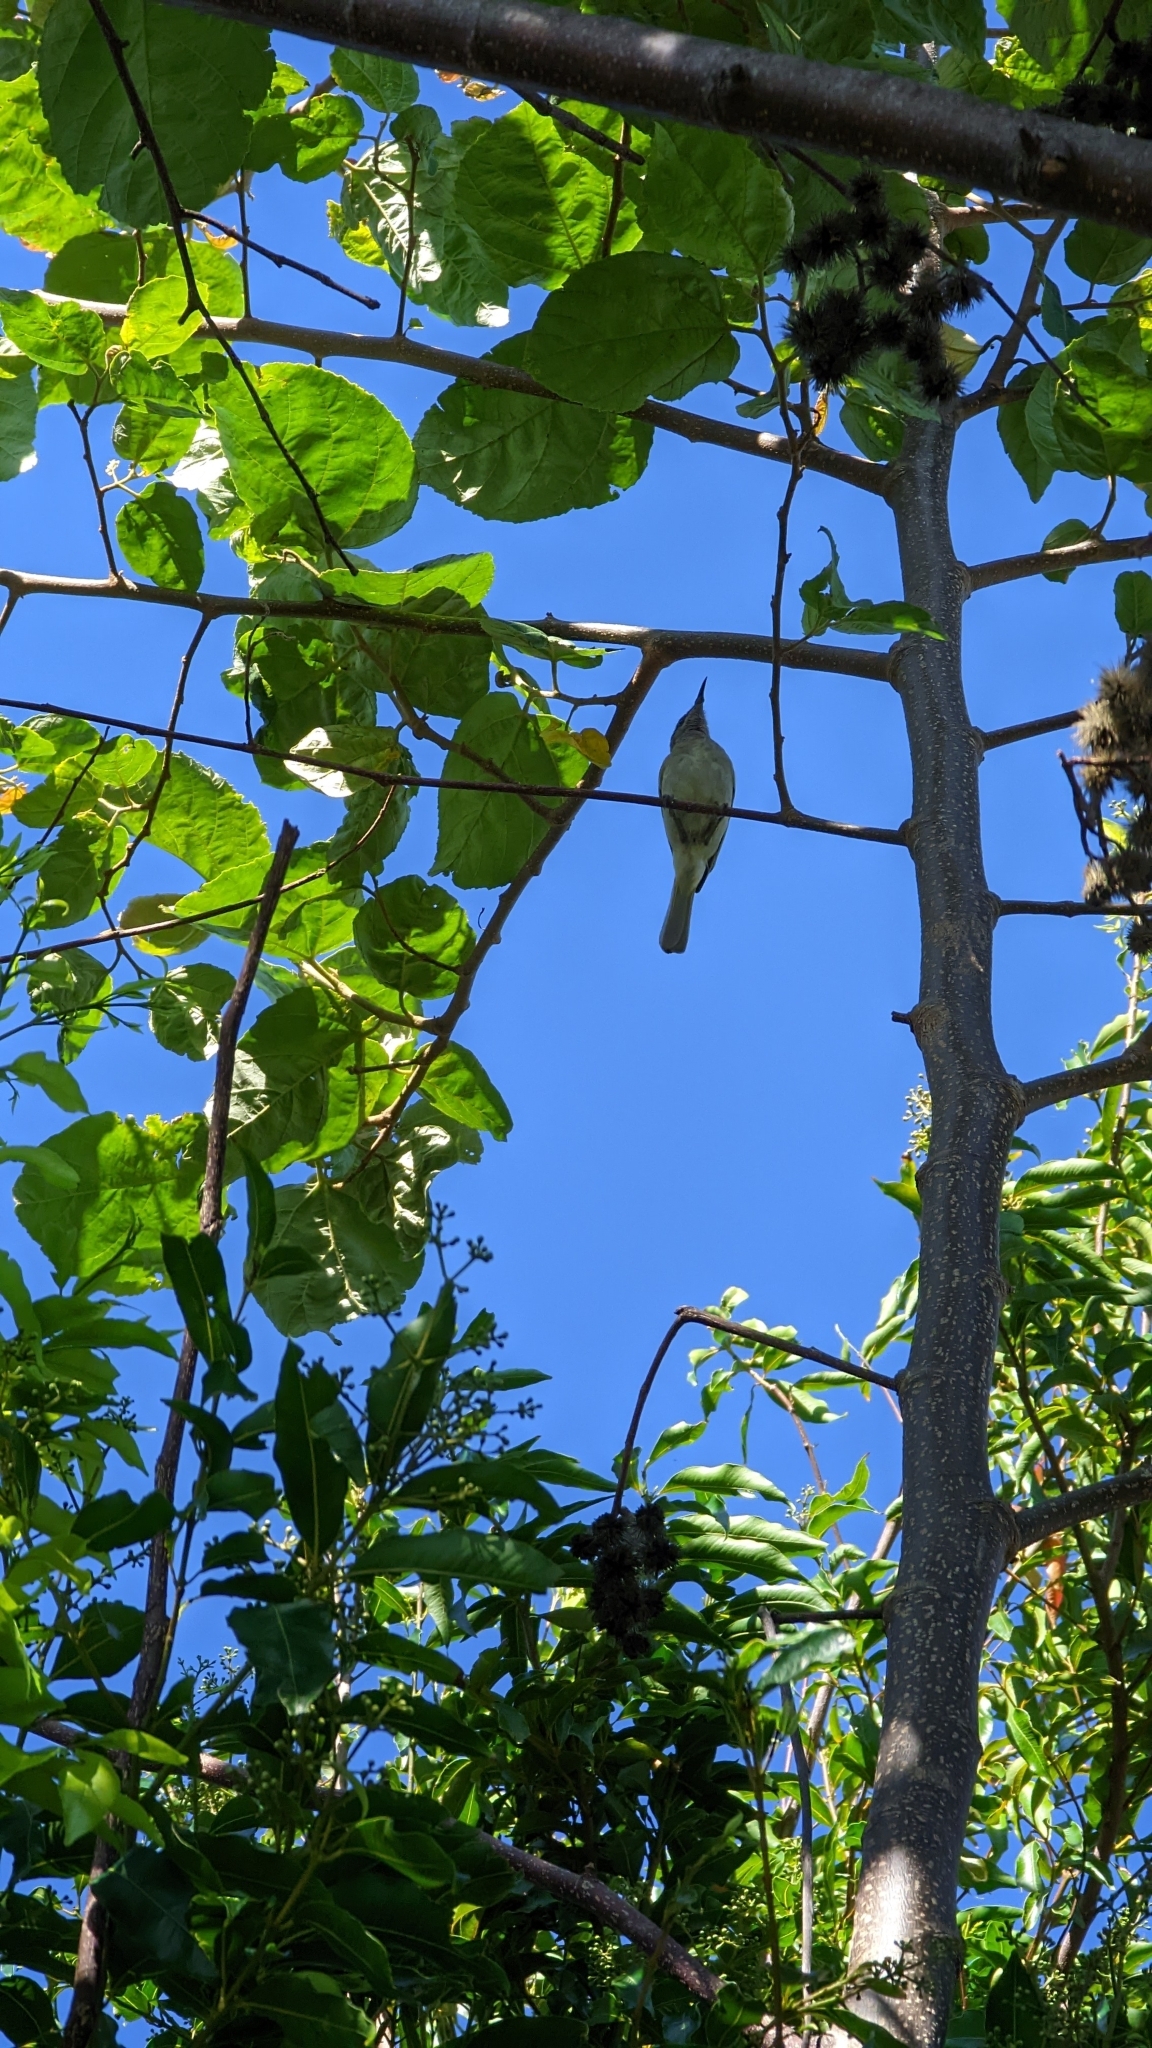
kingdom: Animalia
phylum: Chordata
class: Aves
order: Passeriformes
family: Meliphagidae
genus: Lichmera
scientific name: Lichmera indistincta
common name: Brown honeyeater
